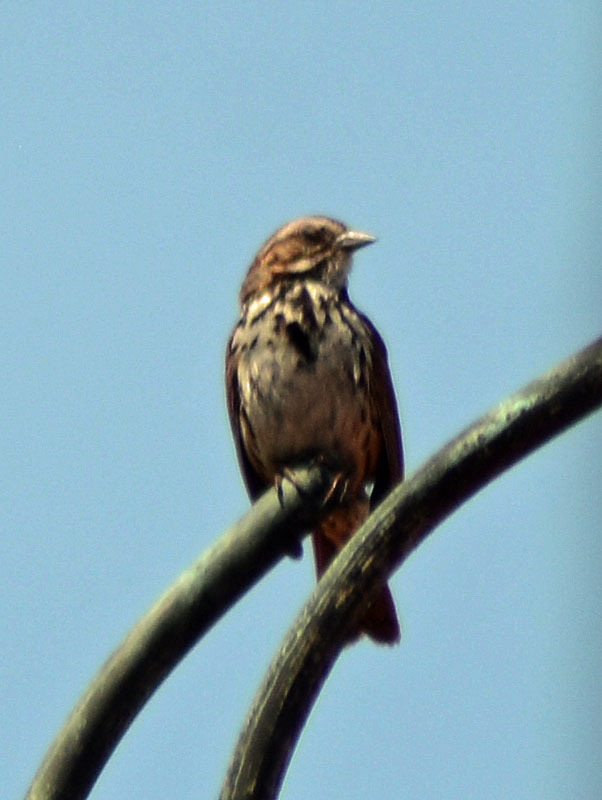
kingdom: Animalia
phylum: Chordata
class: Aves
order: Passeriformes
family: Passerellidae
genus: Melospiza
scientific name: Melospiza melodia
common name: Song sparrow
